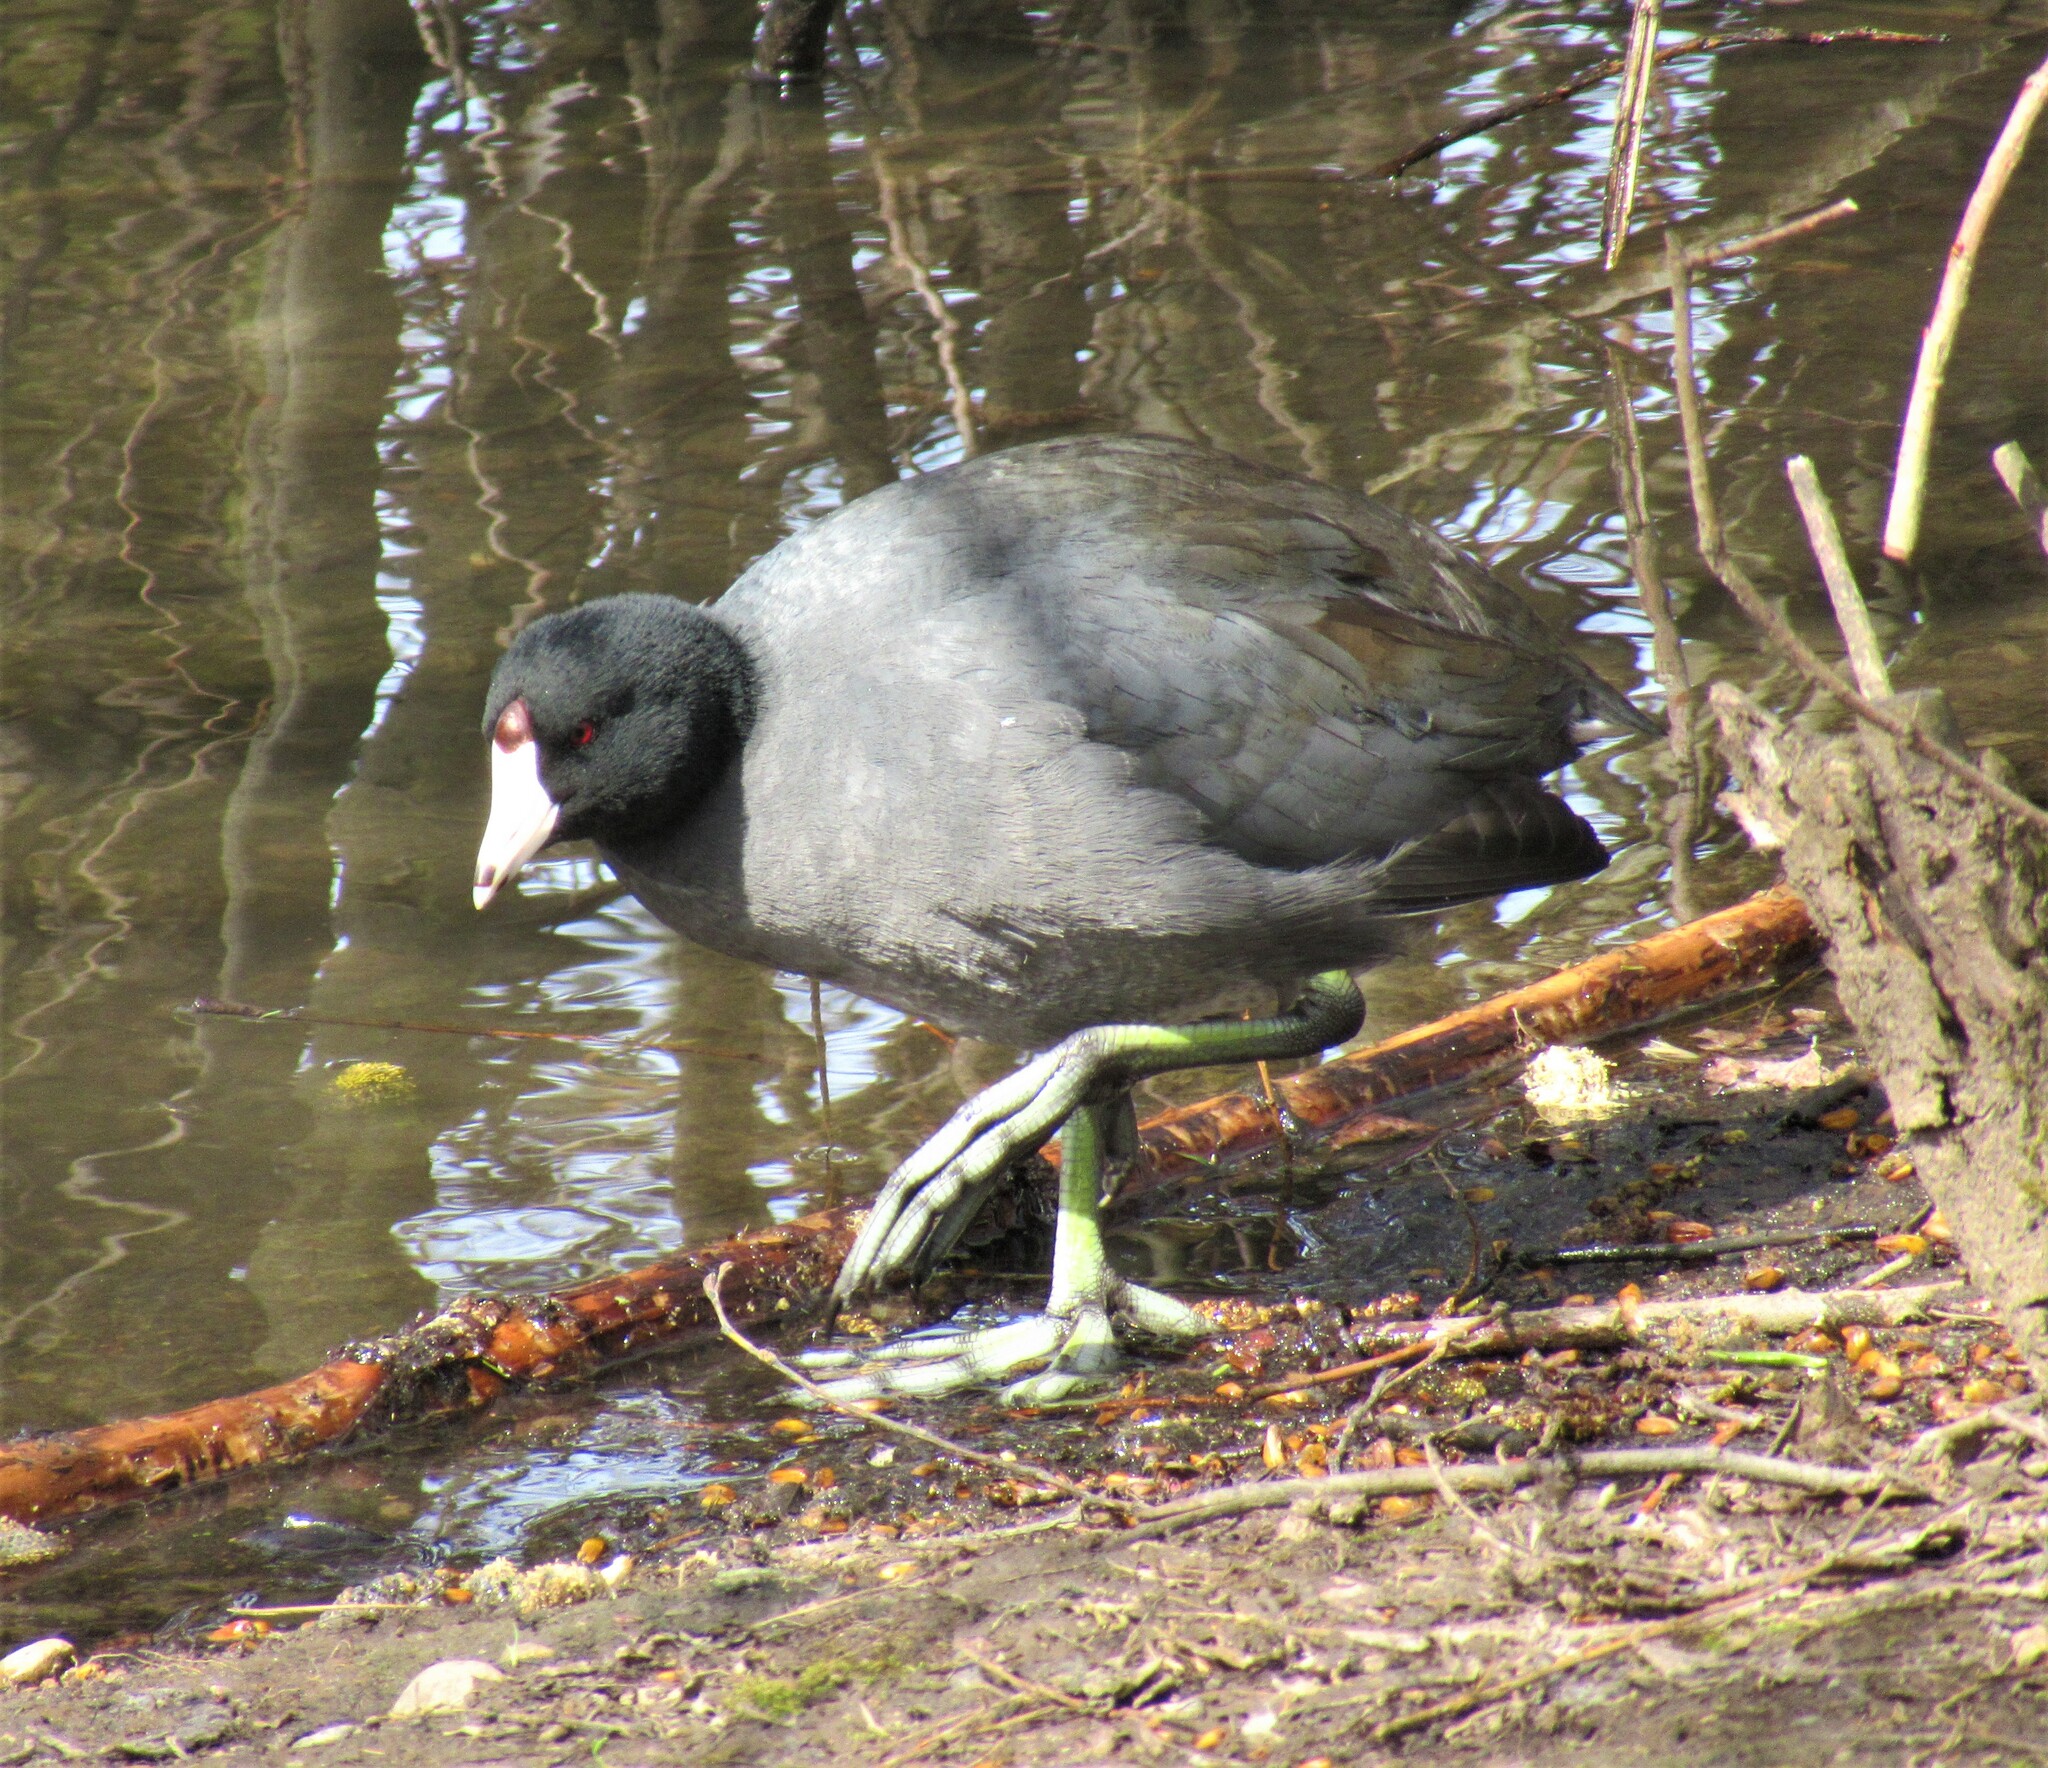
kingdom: Animalia
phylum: Chordata
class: Aves
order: Gruiformes
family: Rallidae
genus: Fulica
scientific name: Fulica americana
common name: American coot
